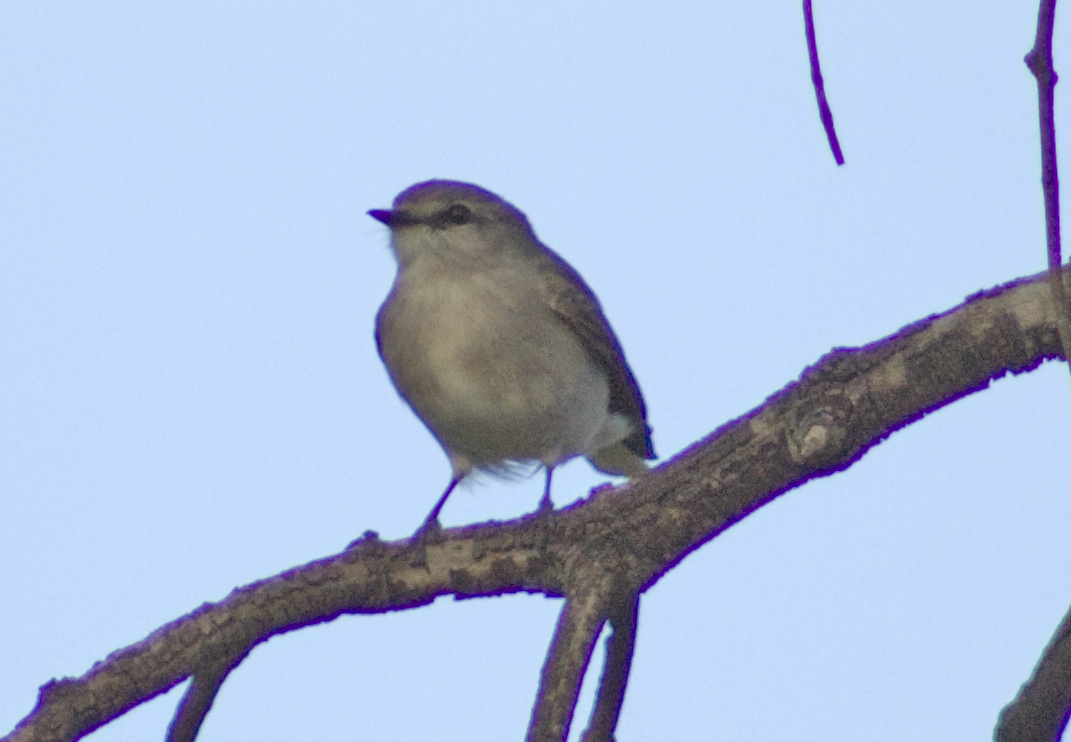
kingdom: Animalia
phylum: Chordata
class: Aves
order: Passeriformes
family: Petroicidae
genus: Microeca
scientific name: Microeca fascinans
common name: Jacky winter
